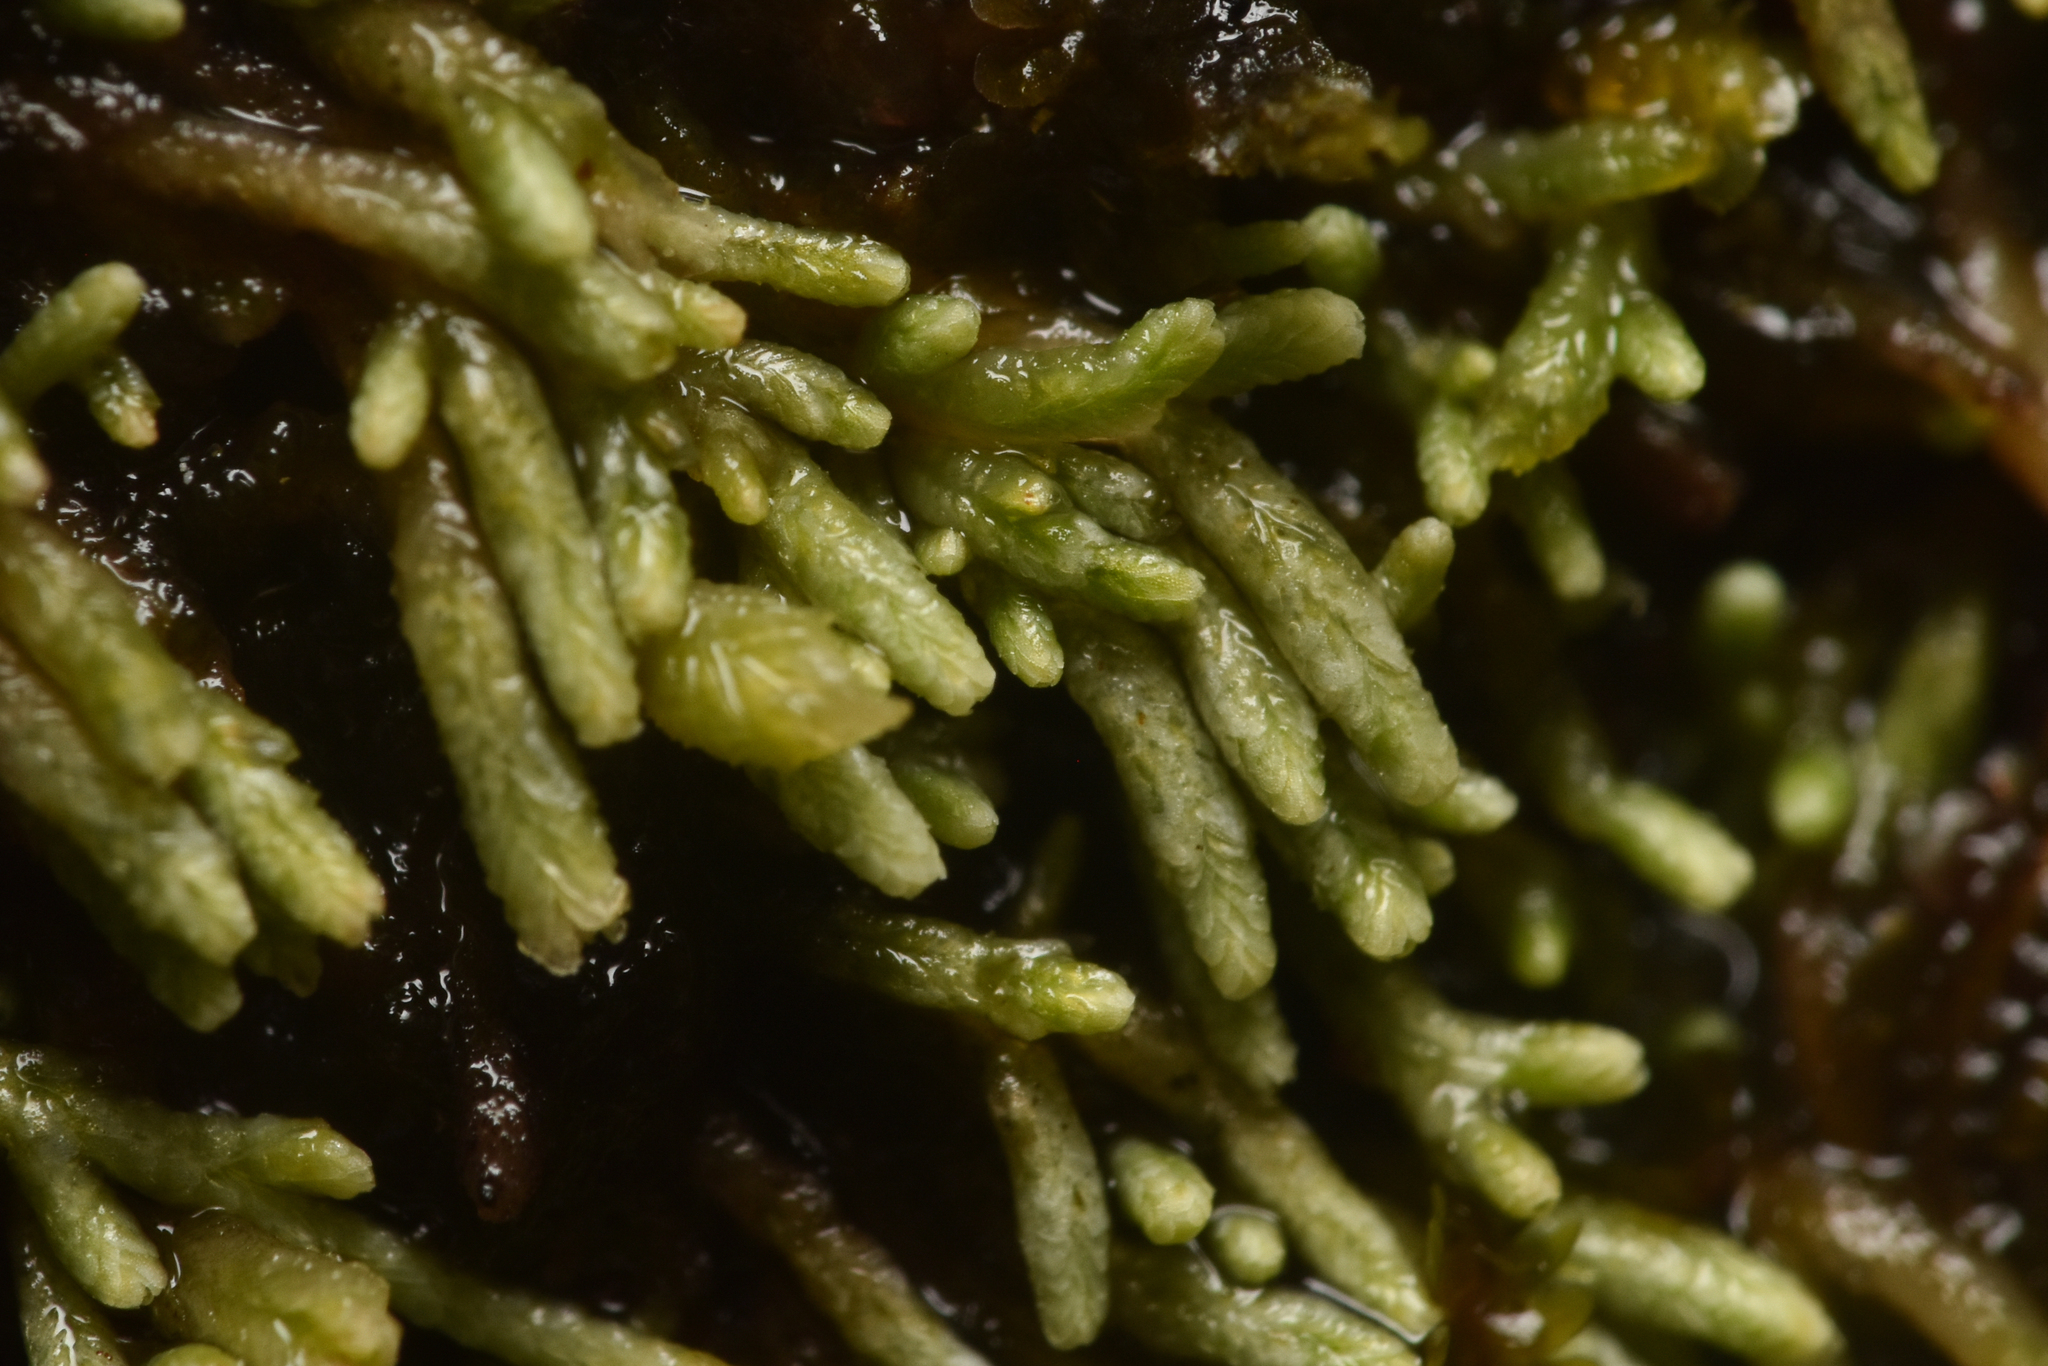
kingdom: Plantae
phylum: Marchantiophyta
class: Jungermanniopsida
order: Jungermanniales
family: Gymnomitriaceae
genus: Gymnomitrion
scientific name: Gymnomitrion obtusum
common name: White frostwort
